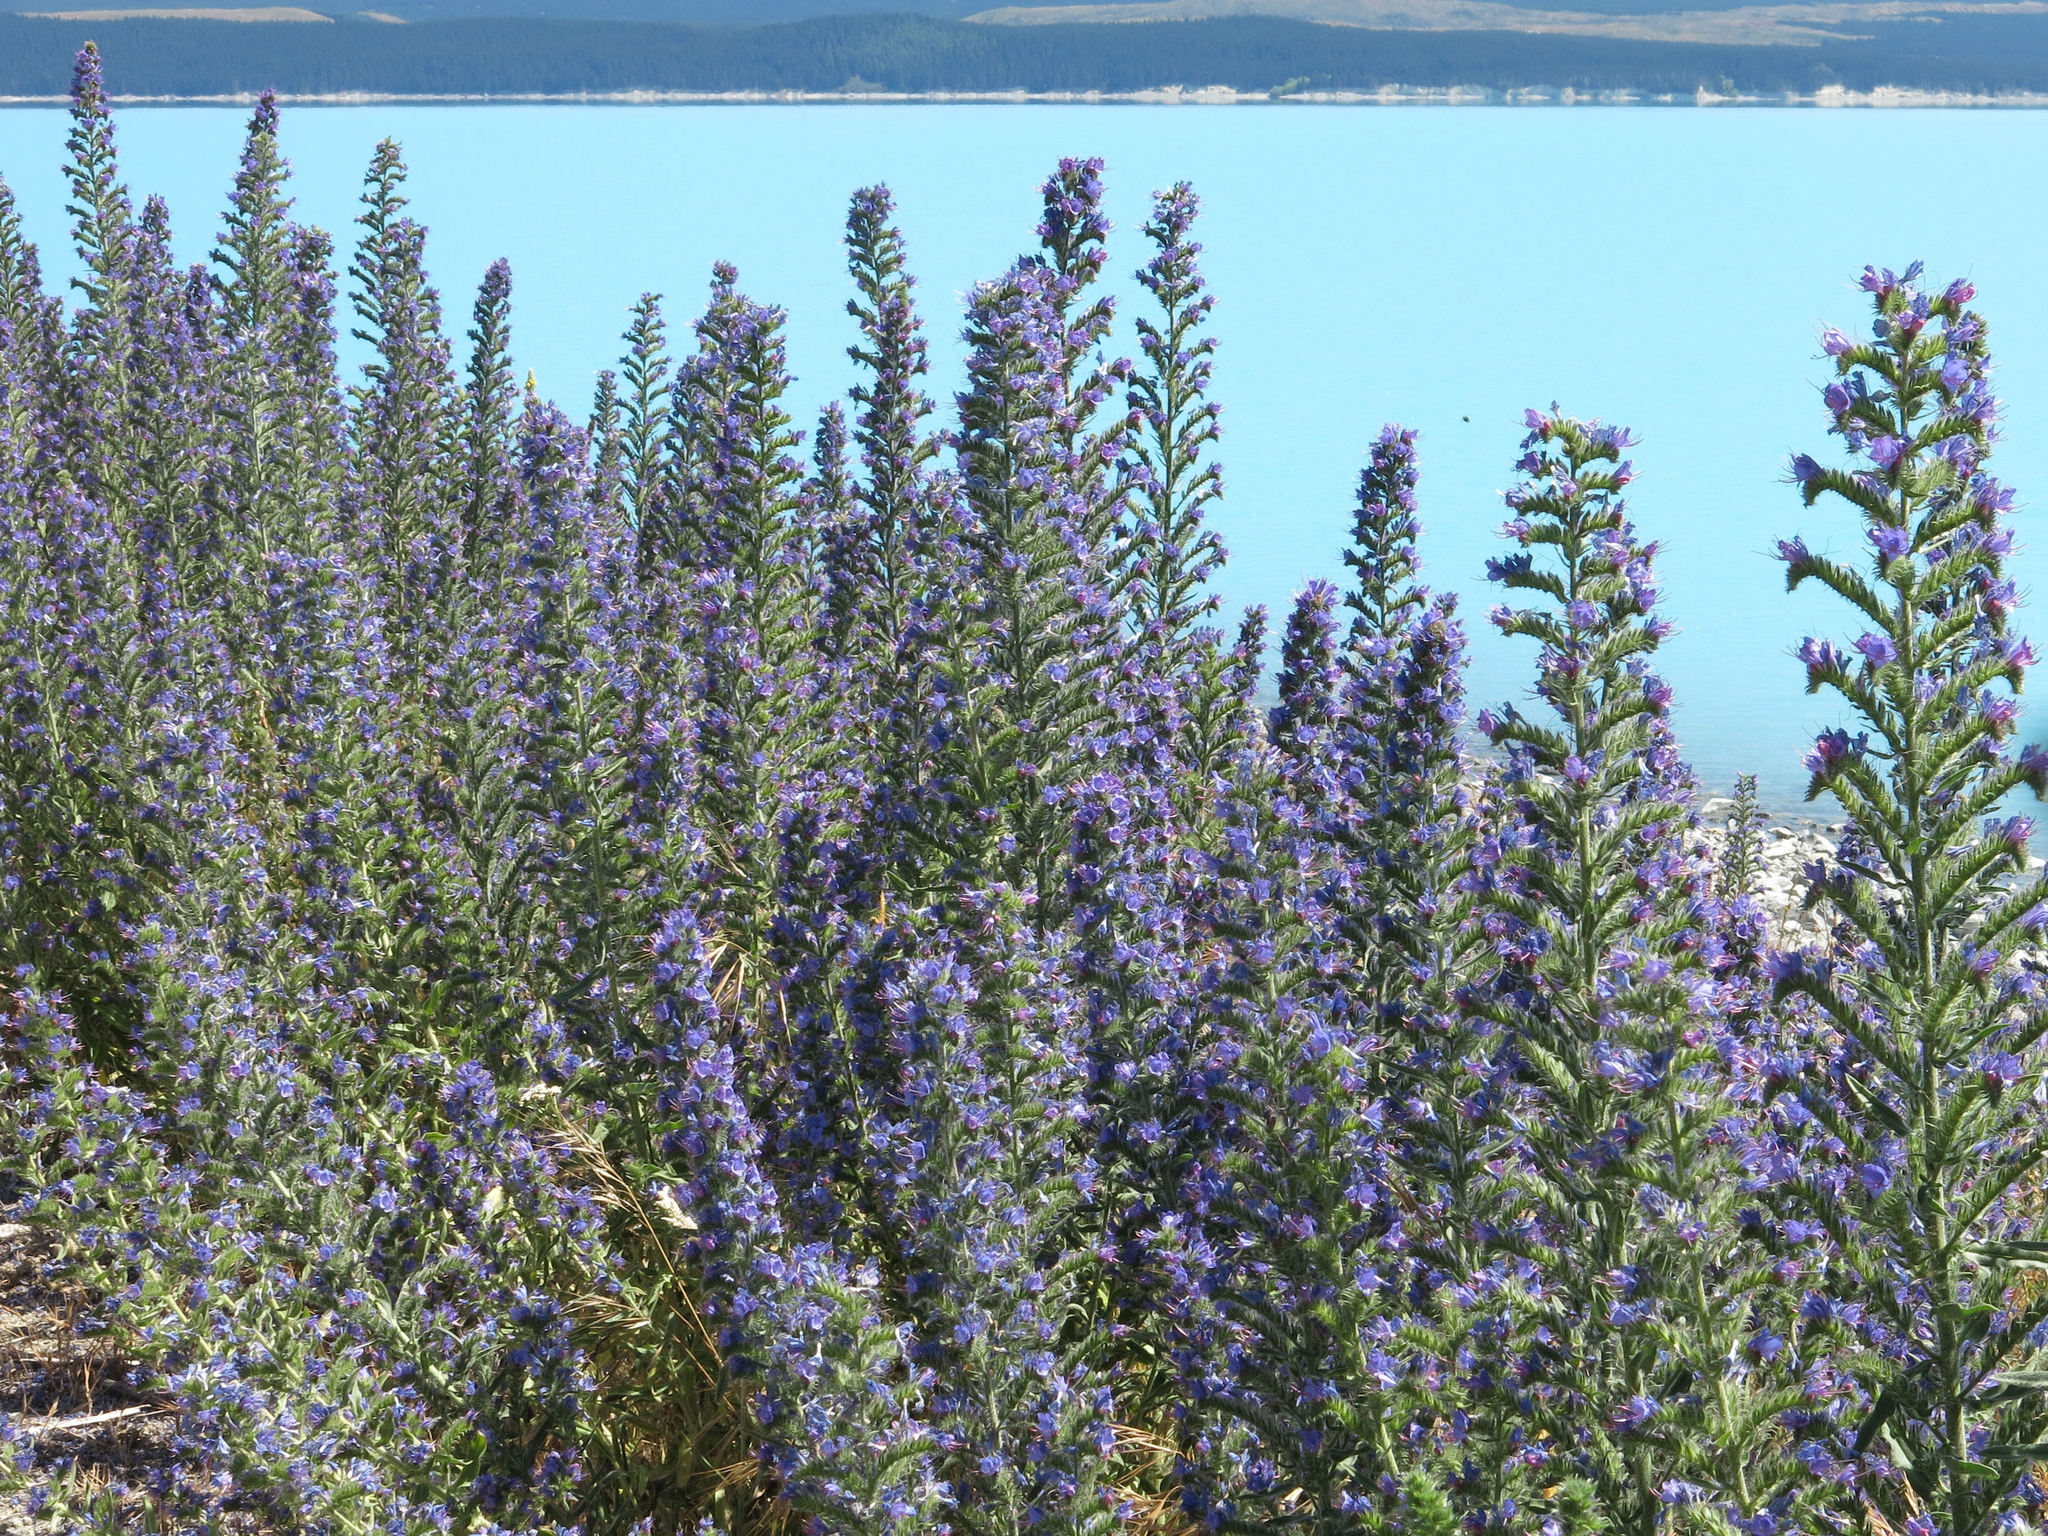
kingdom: Plantae
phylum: Tracheophyta
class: Magnoliopsida
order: Boraginales
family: Boraginaceae
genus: Echium
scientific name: Echium vulgare
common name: Common viper's bugloss
